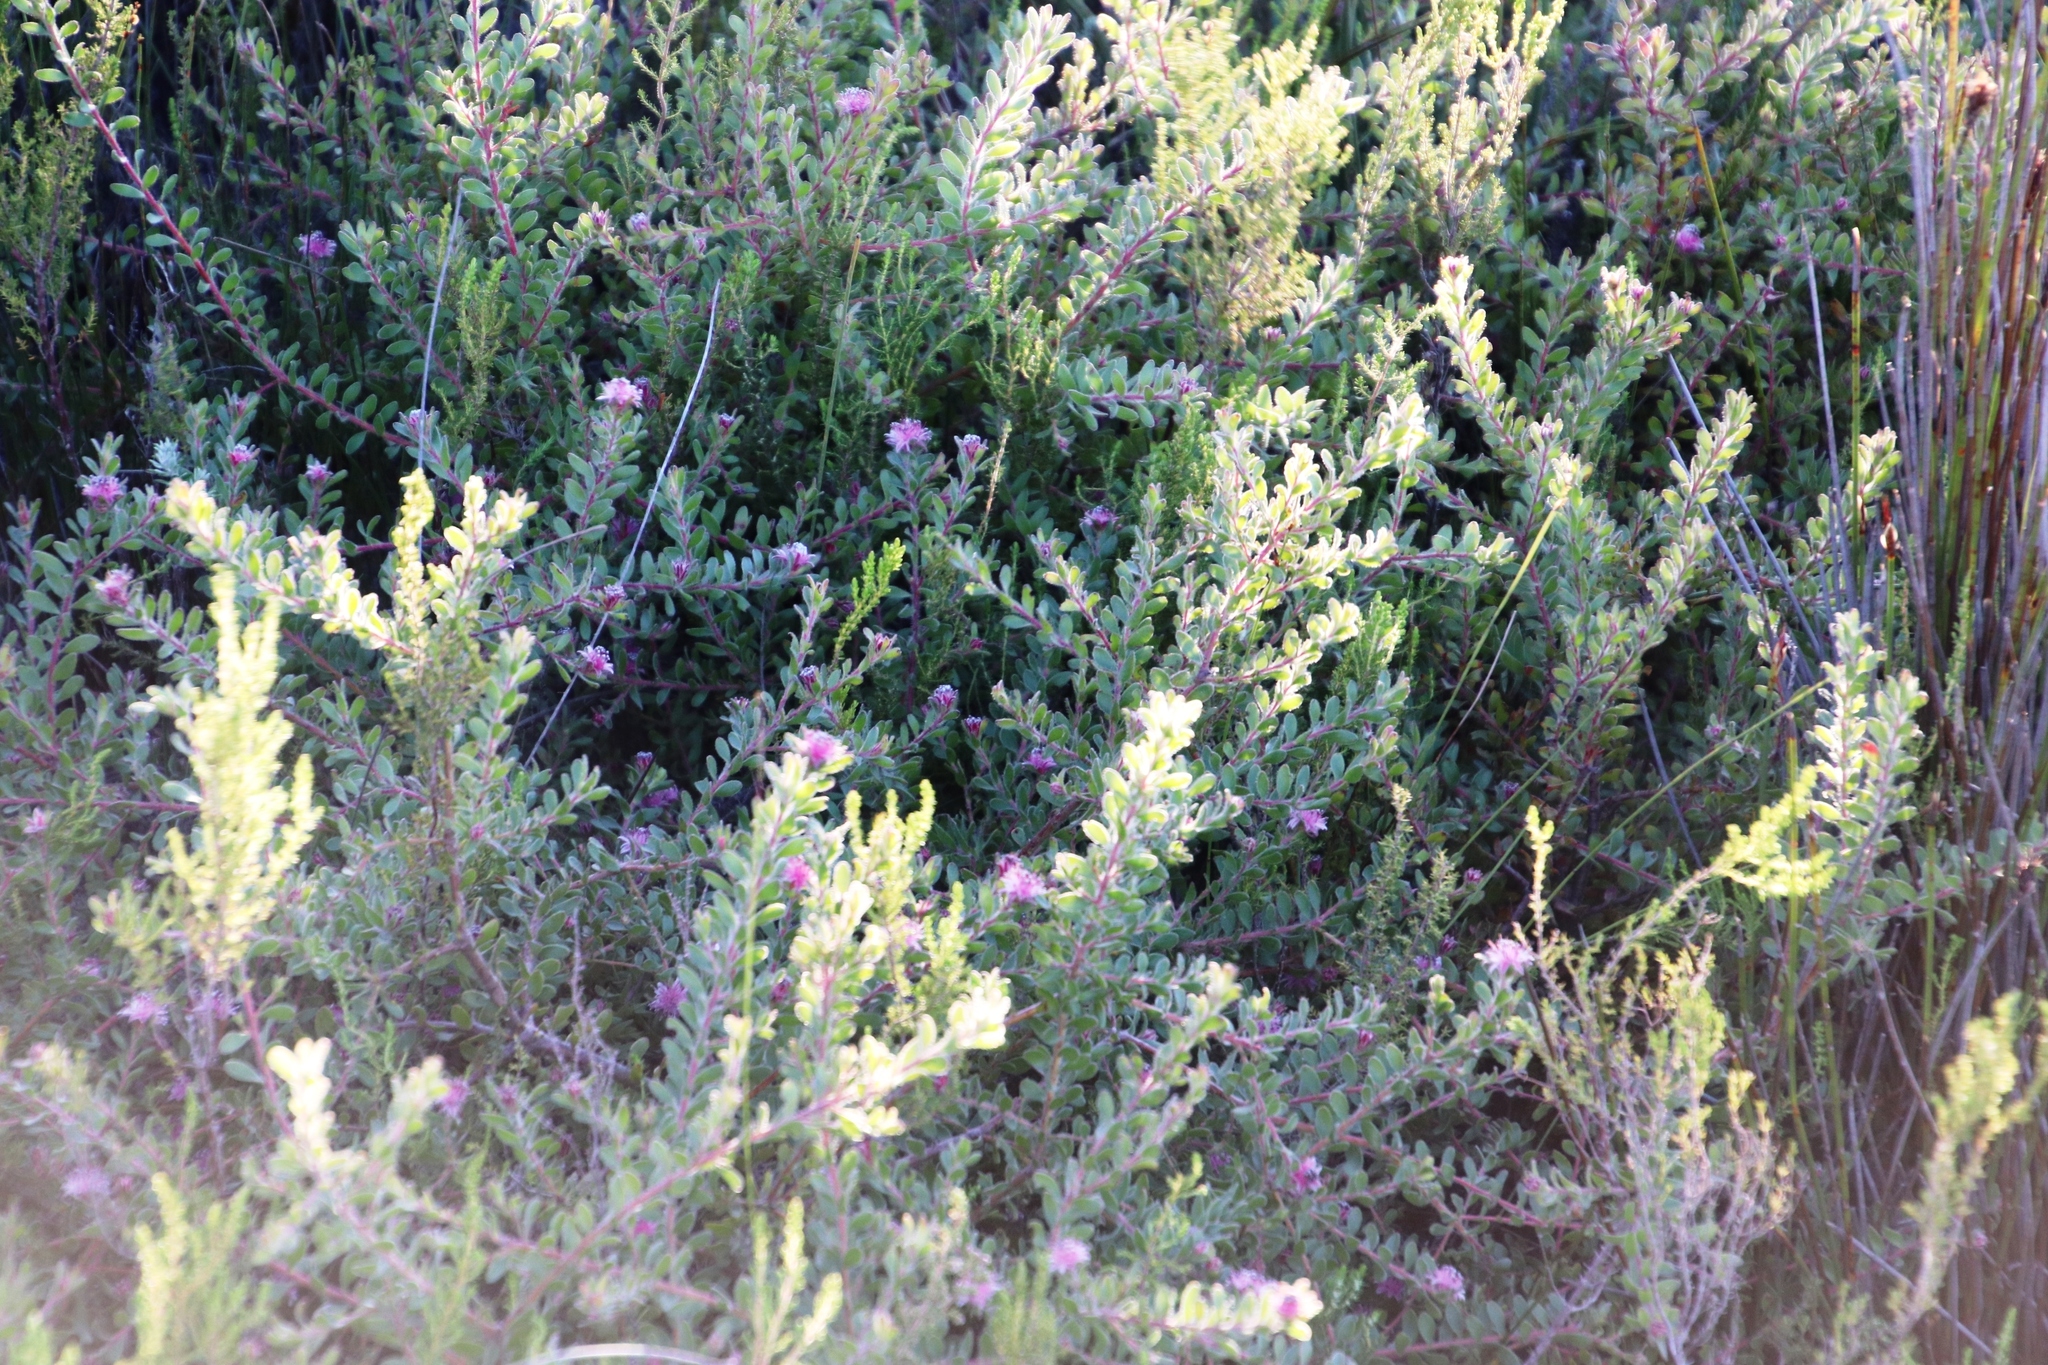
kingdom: Plantae
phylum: Tracheophyta
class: Magnoliopsida
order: Proteales
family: Proteaceae
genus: Diastella
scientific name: Diastella divaricata
